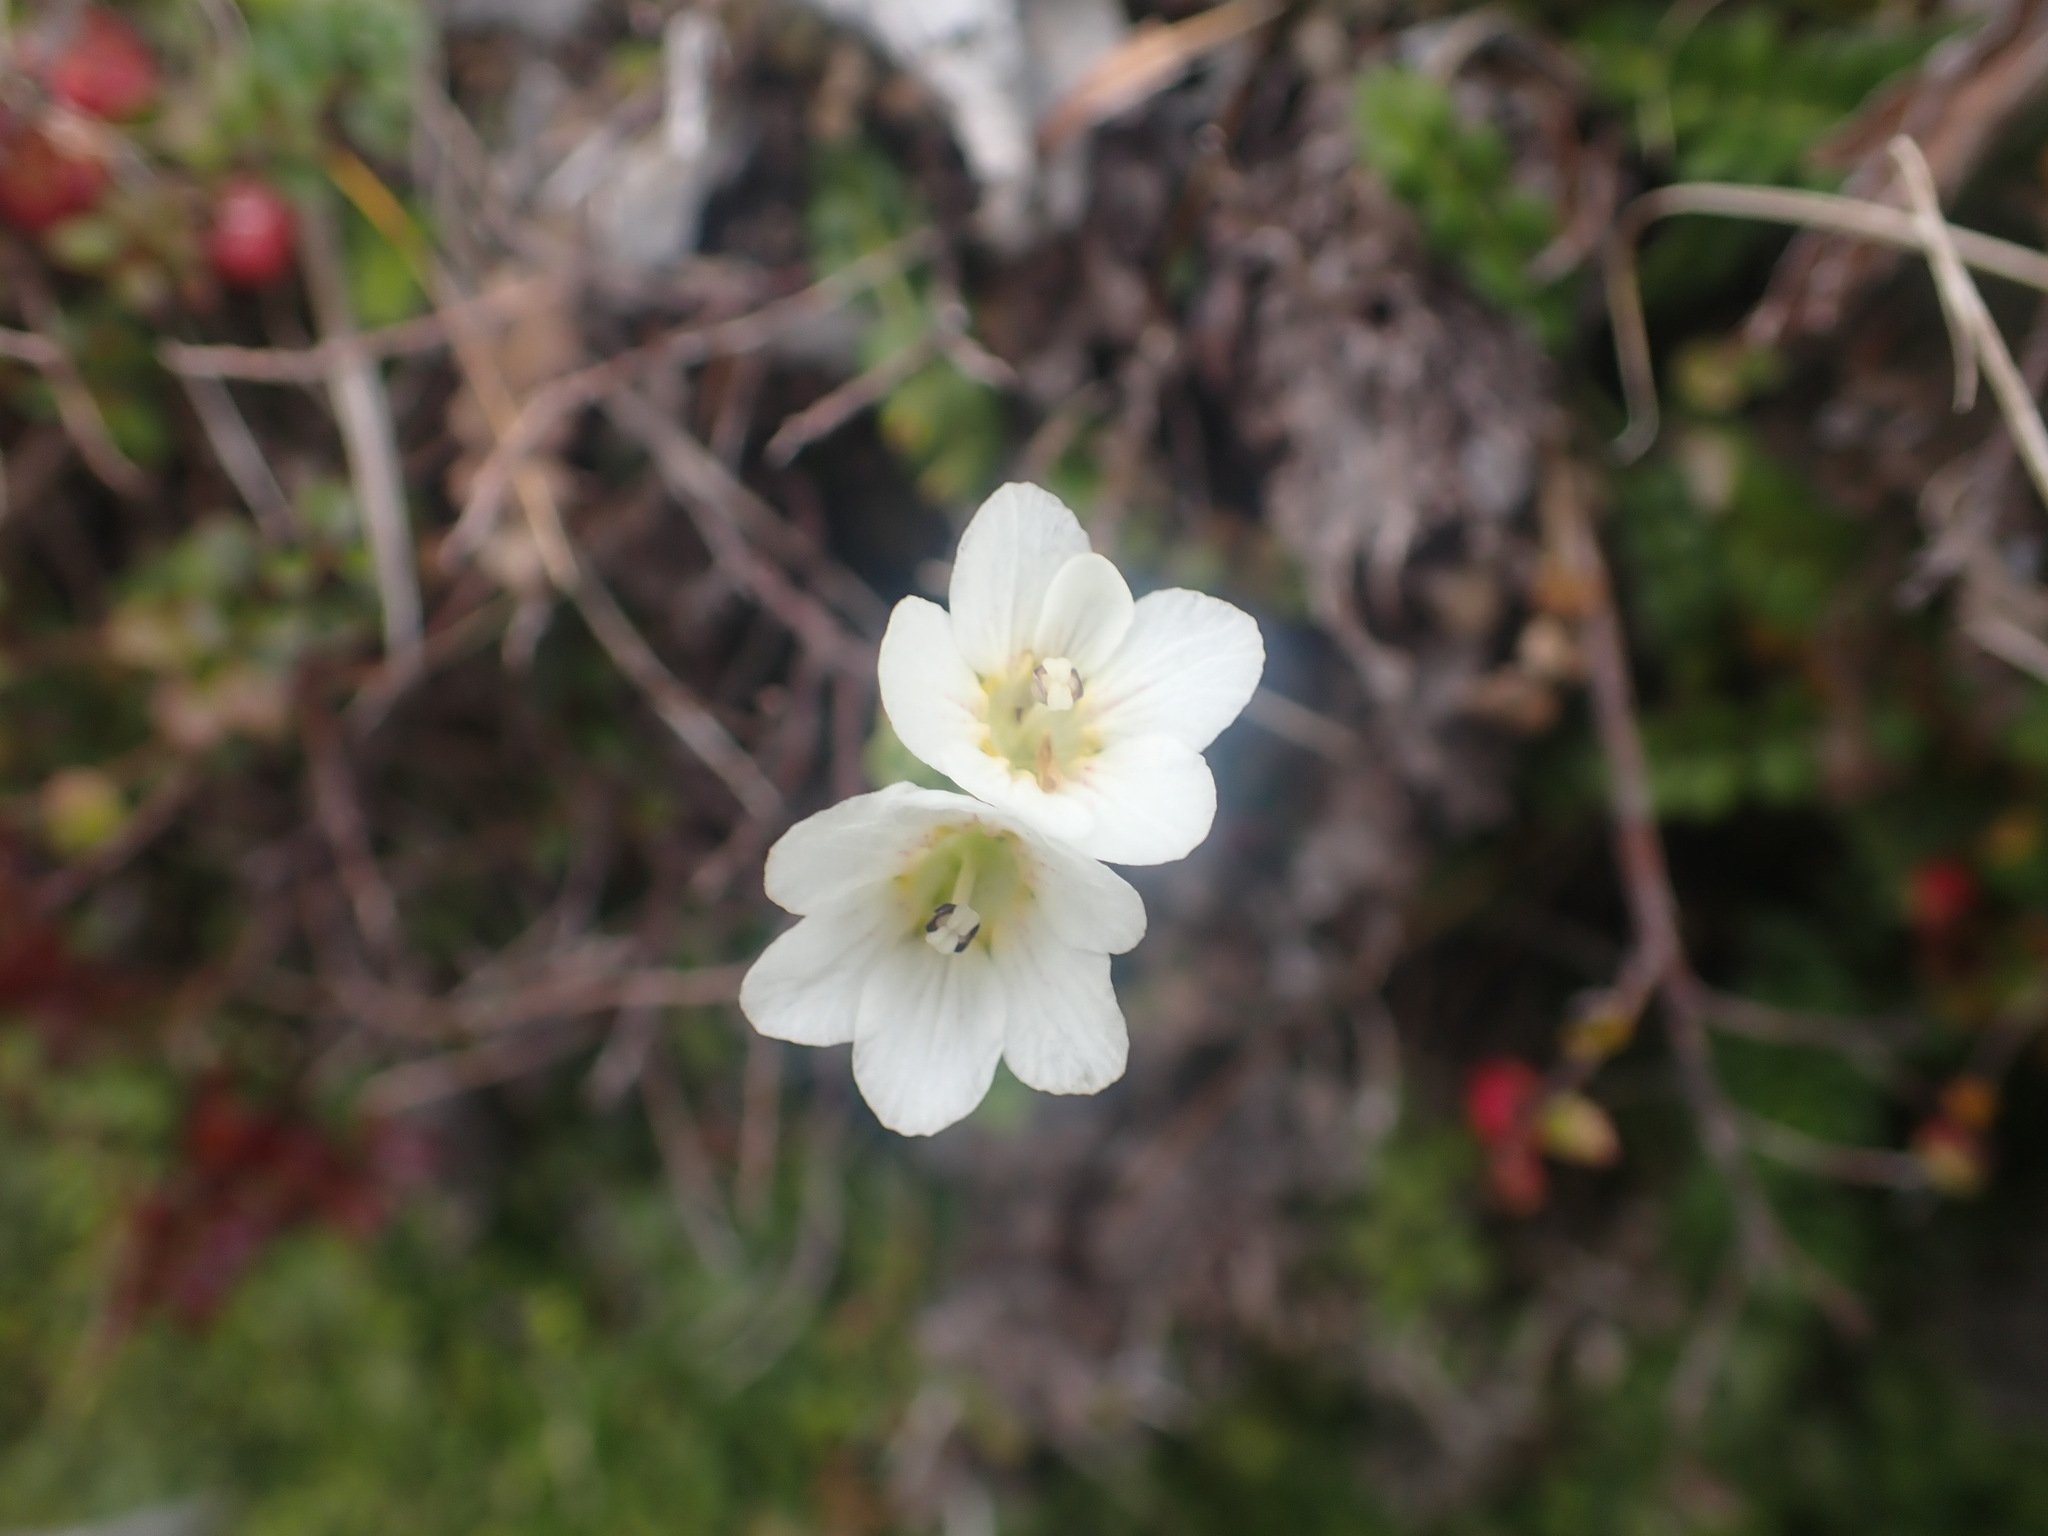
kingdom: Plantae
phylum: Tracheophyta
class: Magnoliopsida
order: Asterales
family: Stylidiaceae
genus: Forstera
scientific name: Forstera tenella
